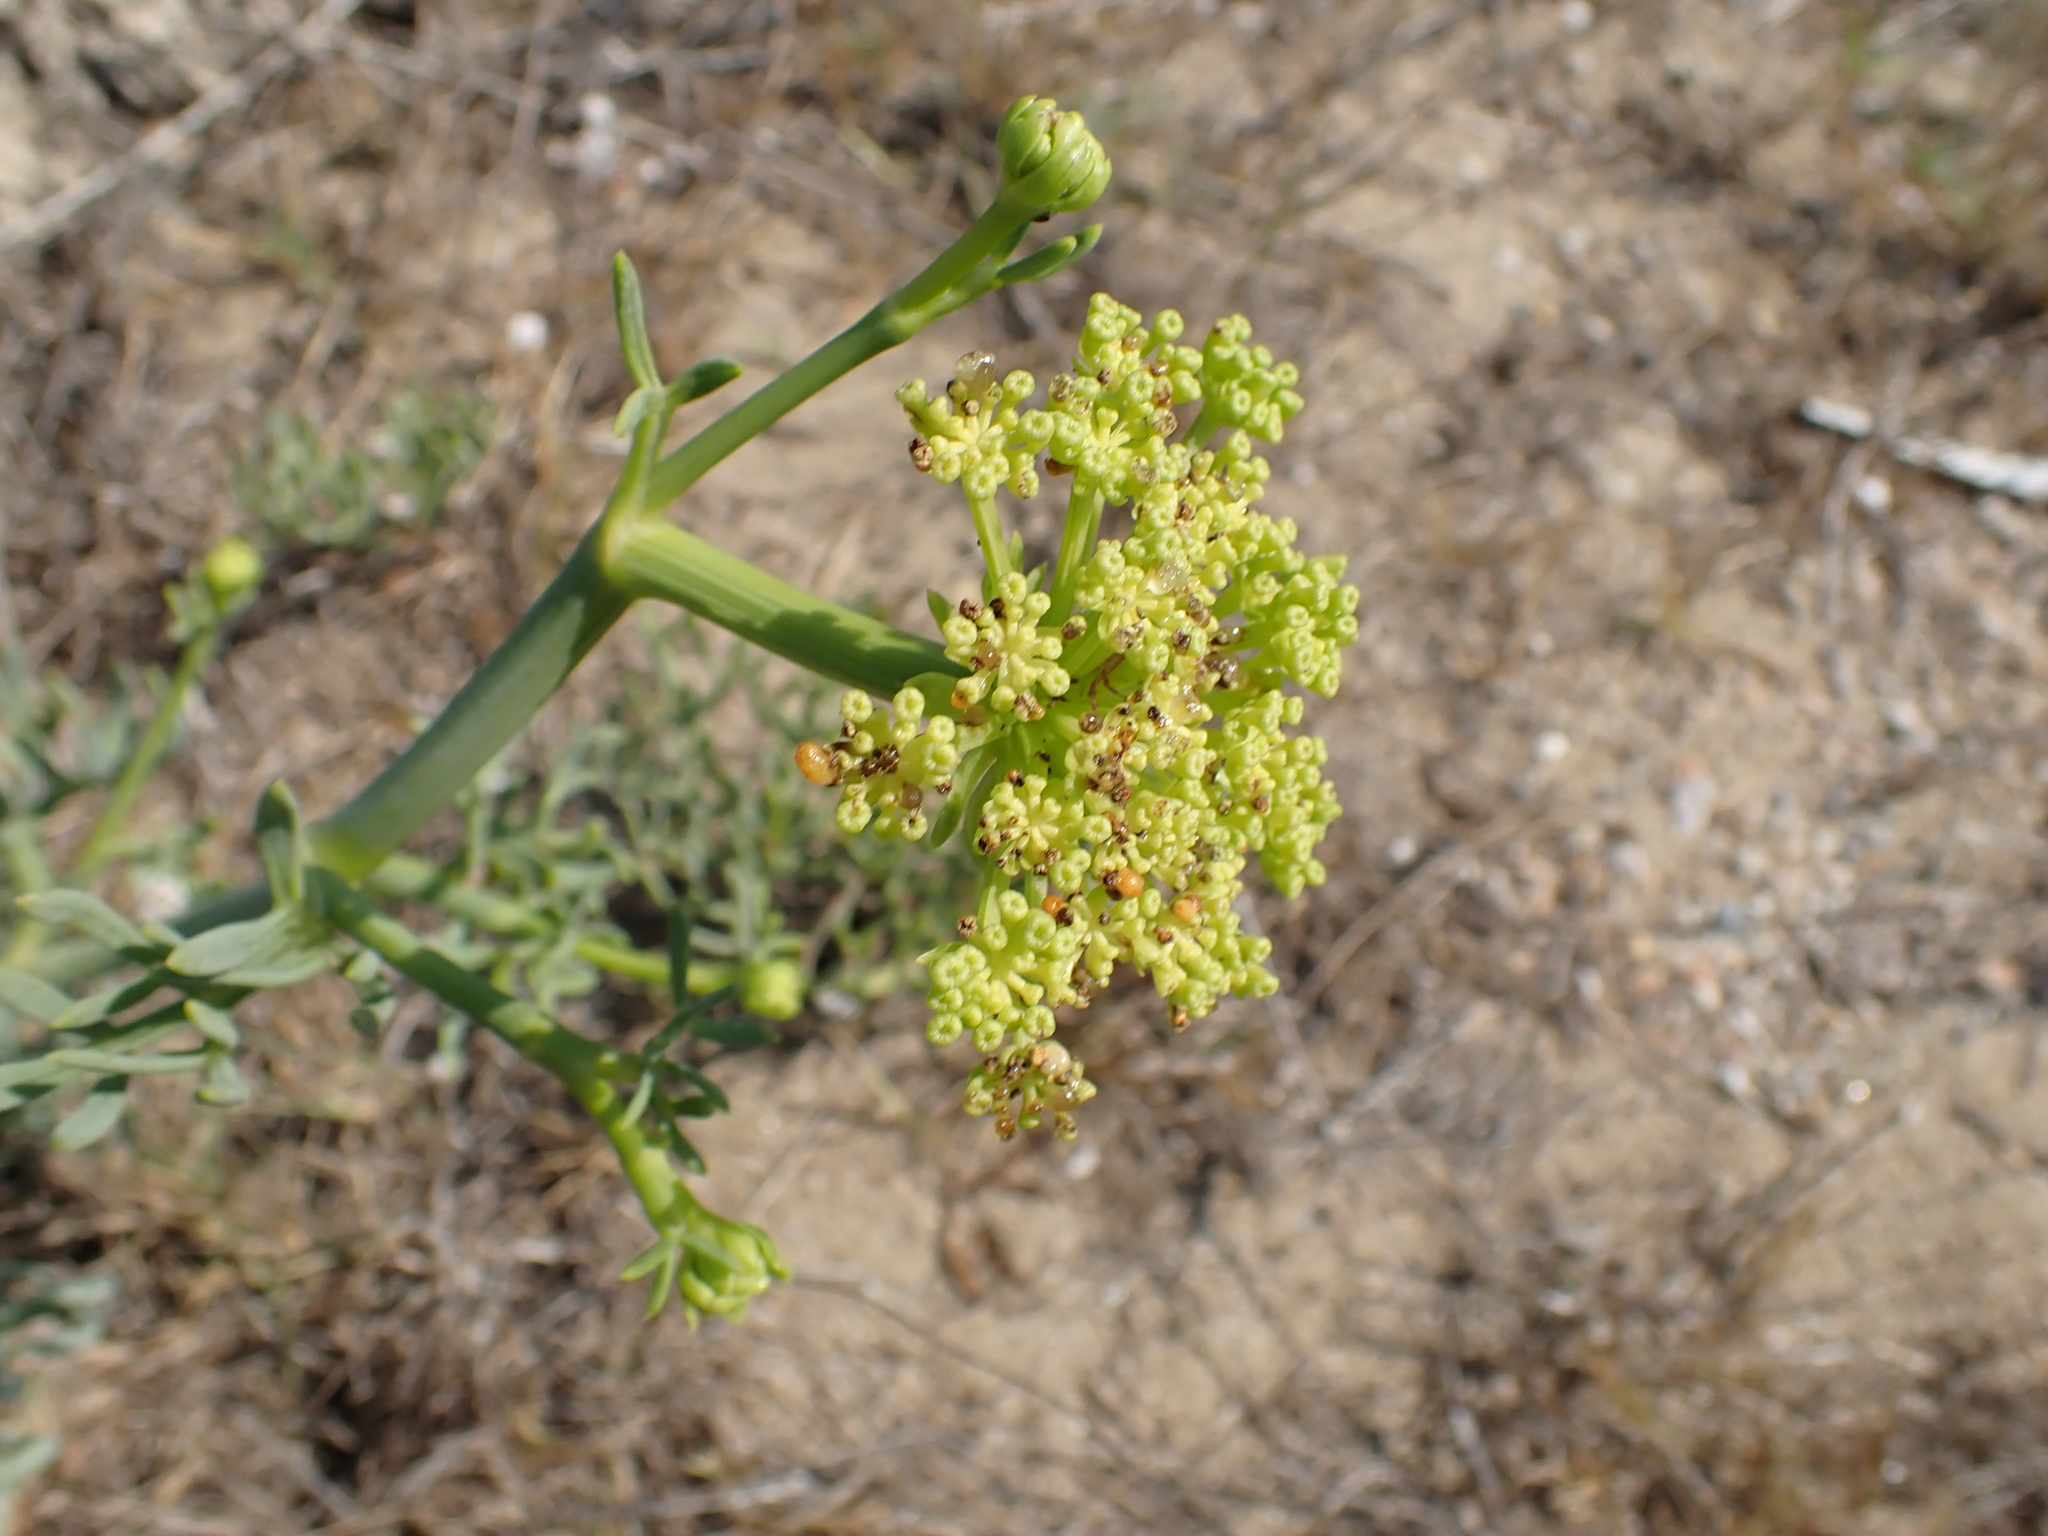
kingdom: Plantae
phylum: Tracheophyta
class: Magnoliopsida
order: Apiales
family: Apiaceae
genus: Crithmum
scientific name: Crithmum maritimum
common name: Rock samphire
